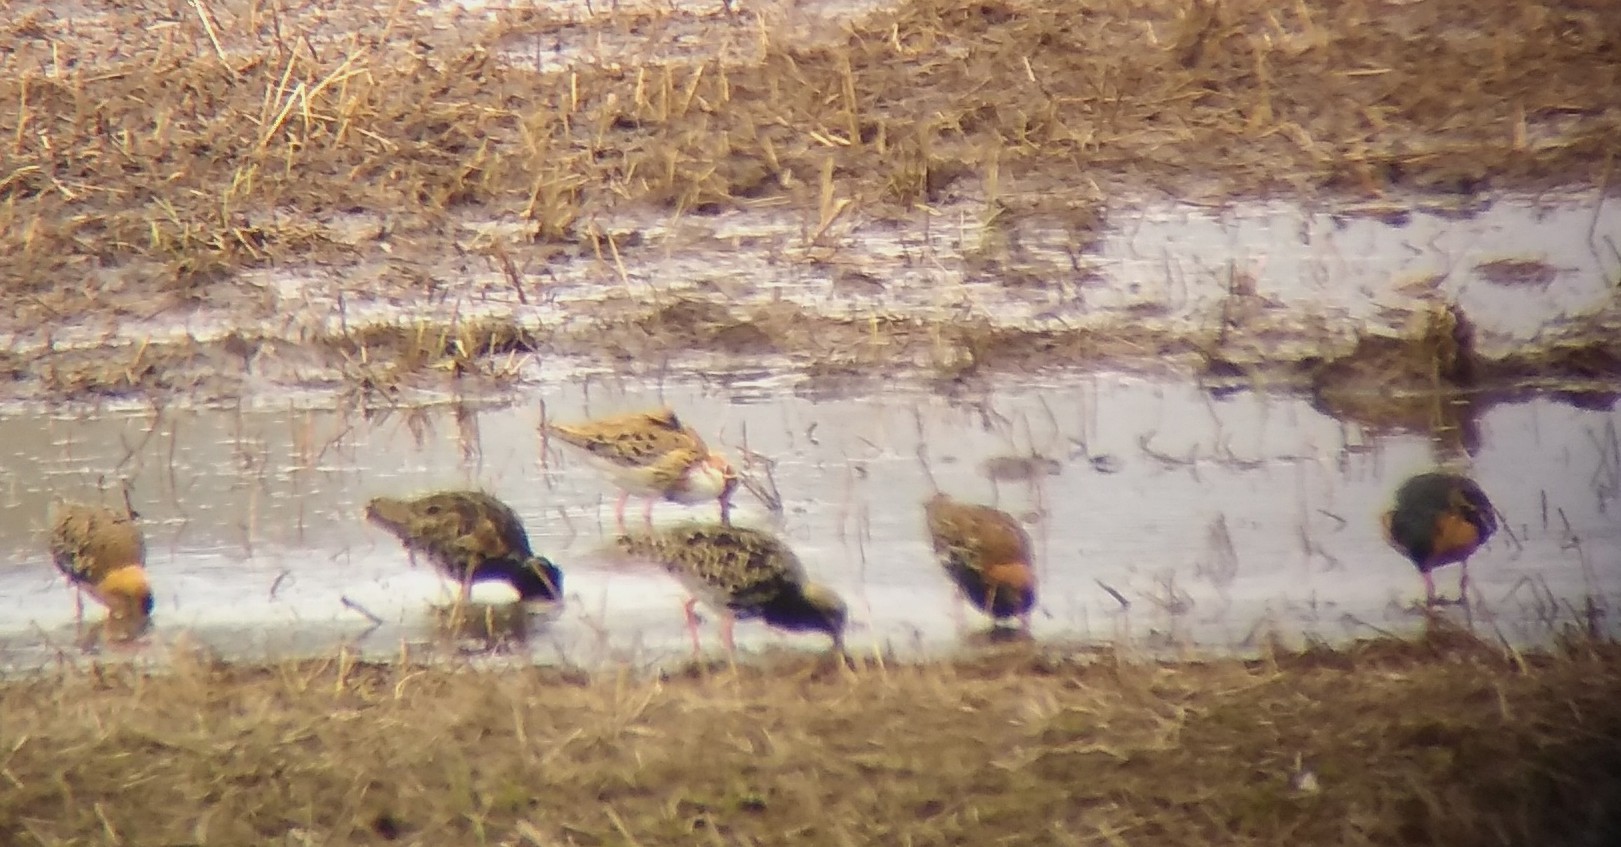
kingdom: Animalia
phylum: Chordata
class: Aves
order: Charadriiformes
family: Scolopacidae
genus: Calidris
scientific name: Calidris pugnax
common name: Ruff
